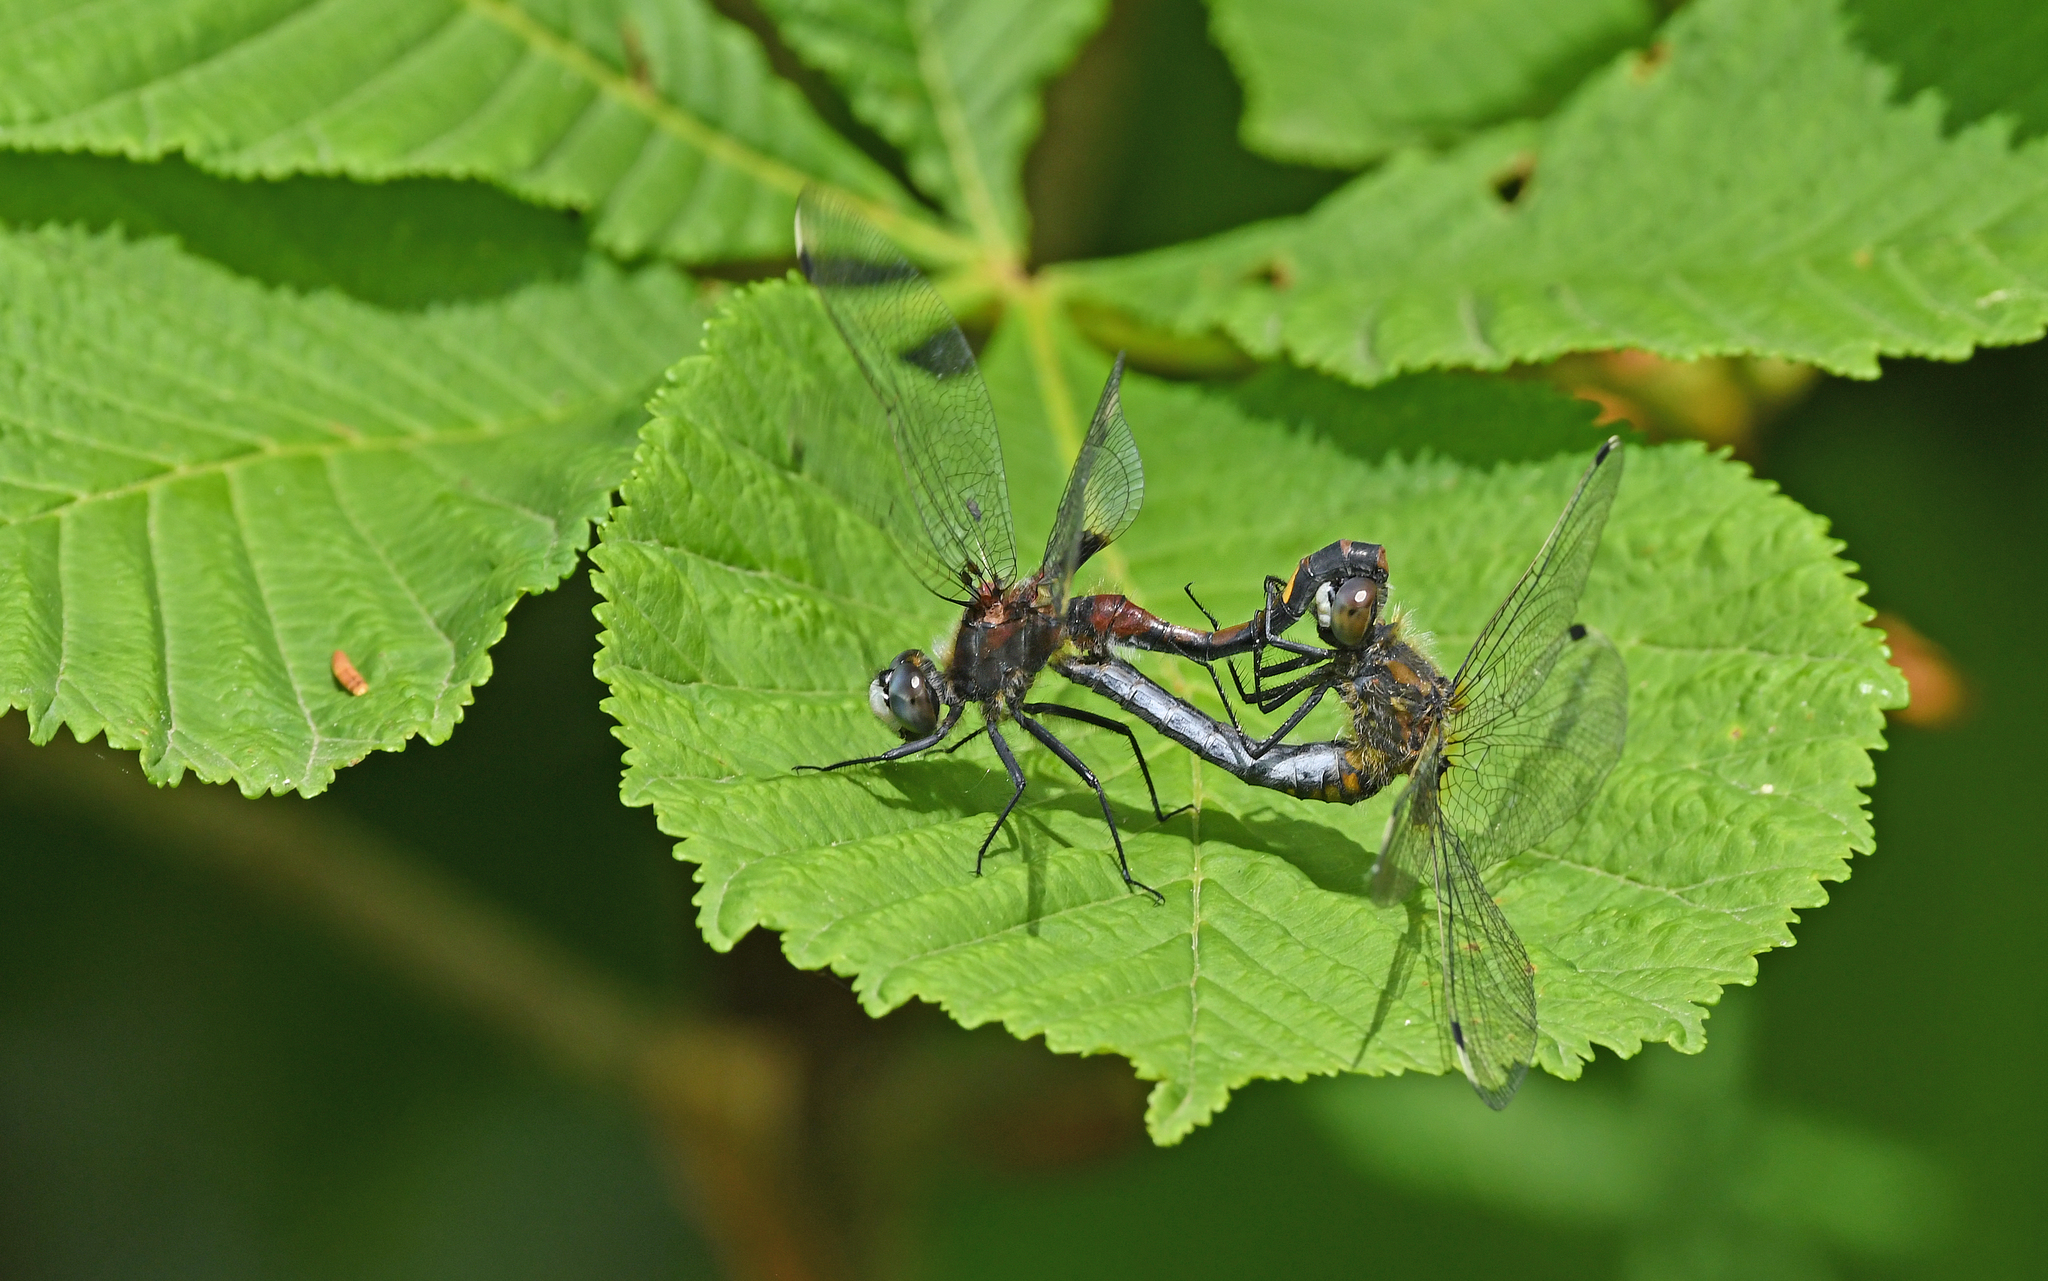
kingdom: Animalia
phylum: Arthropoda
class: Insecta
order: Odonata
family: Libellulidae
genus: Leucorrhinia
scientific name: Leucorrhinia pectoralis
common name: Yellow-spotted whiteface
